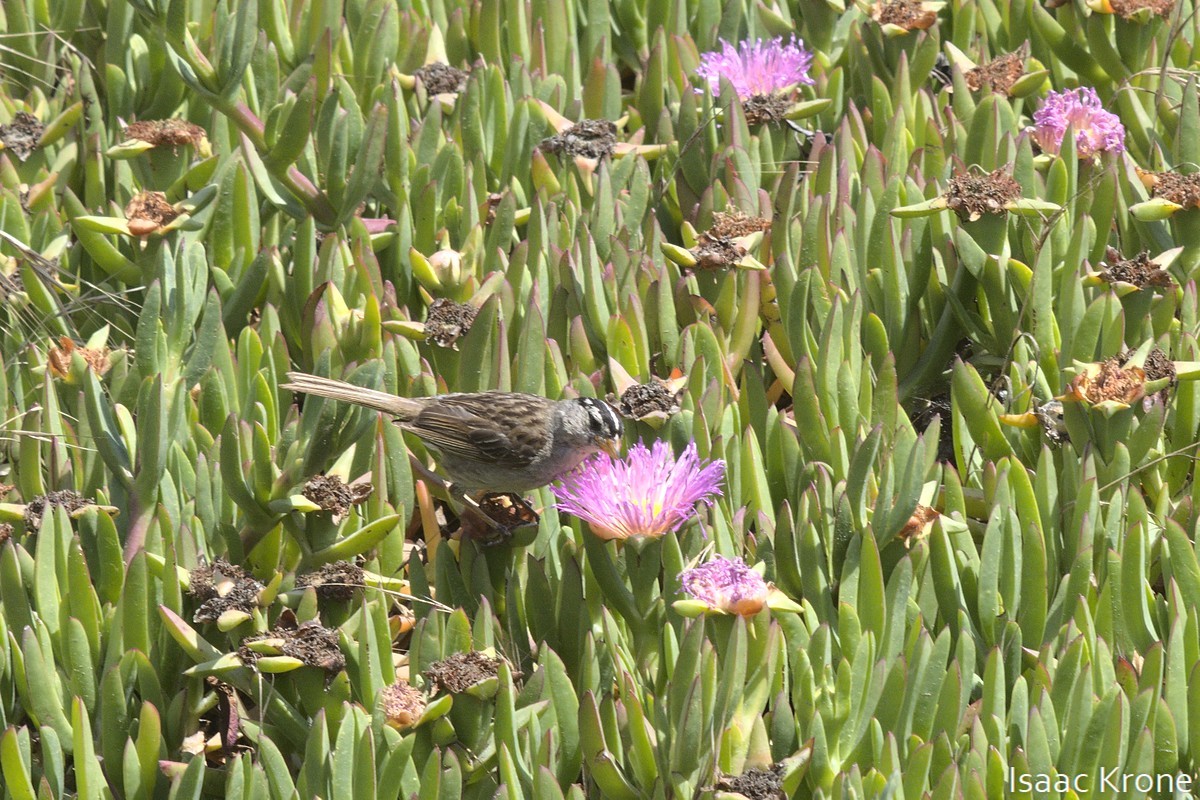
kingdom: Animalia
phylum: Chordata
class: Aves
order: Passeriformes
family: Passerellidae
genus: Zonotrichia
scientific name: Zonotrichia leucophrys
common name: White-crowned sparrow
